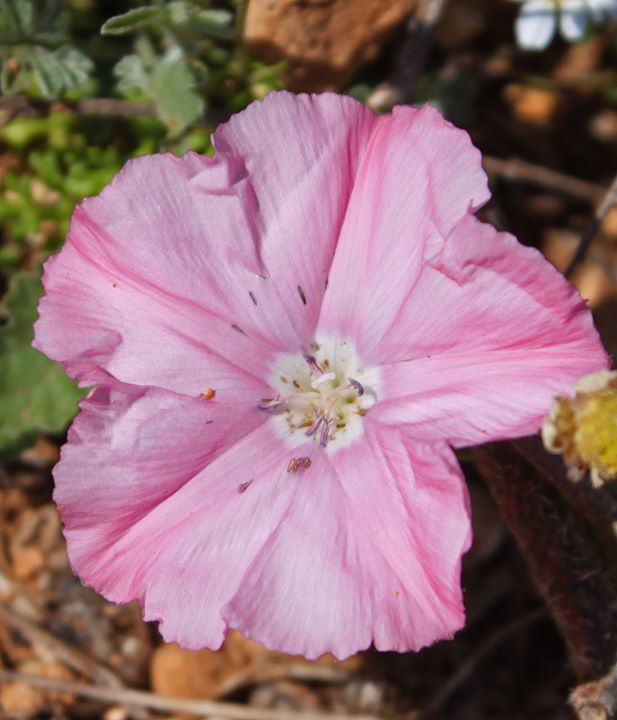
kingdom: Plantae
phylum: Tracheophyta
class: Magnoliopsida
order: Solanales
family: Convolvulaceae
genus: Convolvulus
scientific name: Convolvulus elegantissimus
